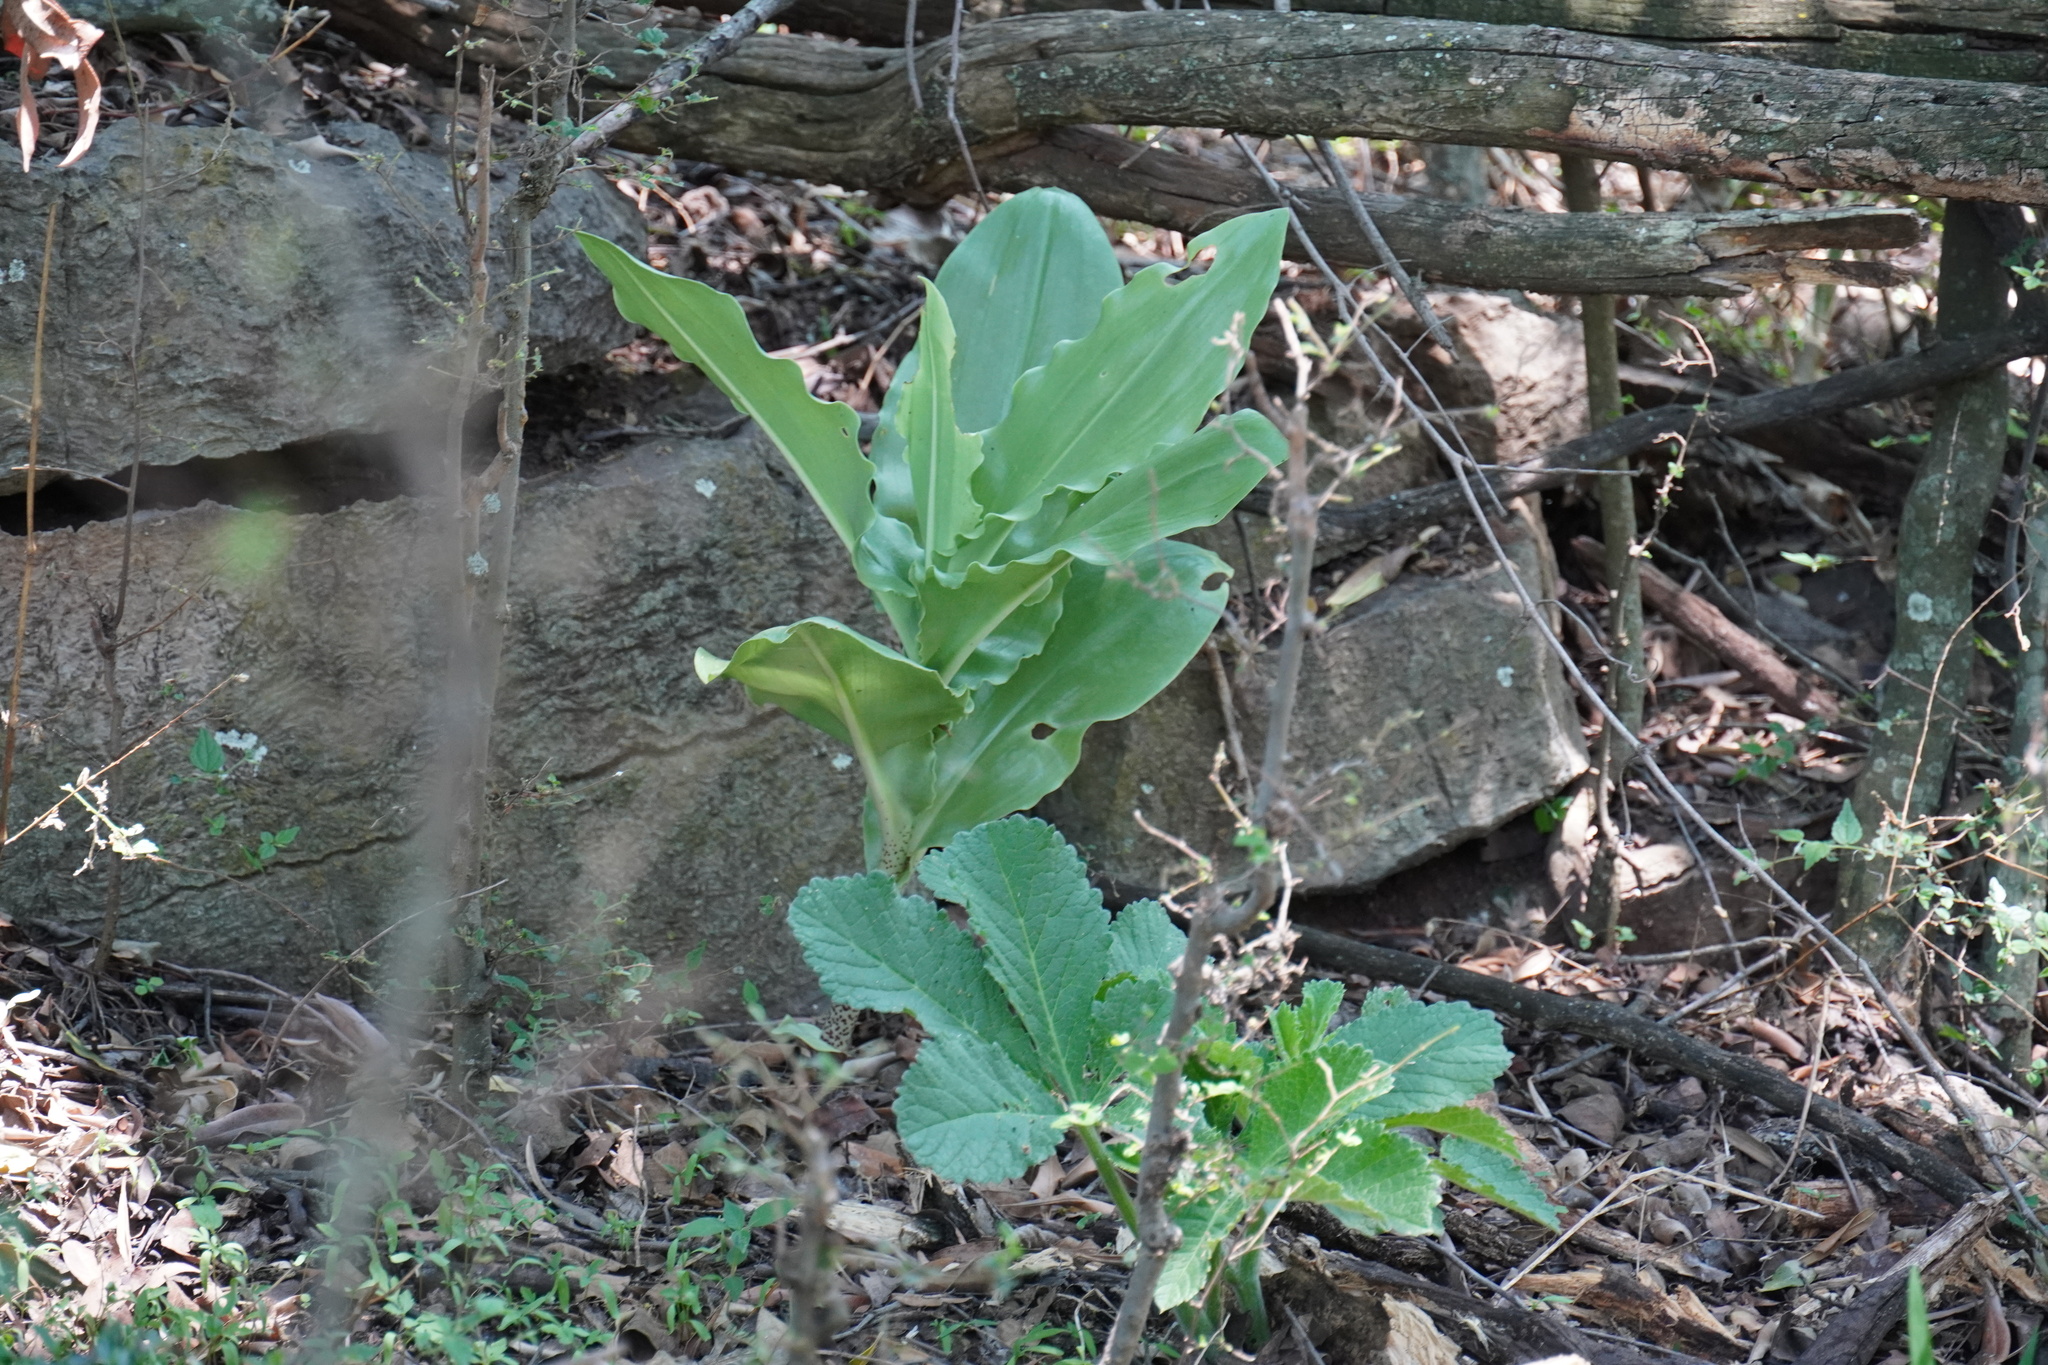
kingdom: Plantae
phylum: Tracheophyta
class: Liliopsida
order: Asparagales
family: Amaryllidaceae
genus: Scadoxus
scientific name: Scadoxus puniceus
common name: Royal-paintbrush
